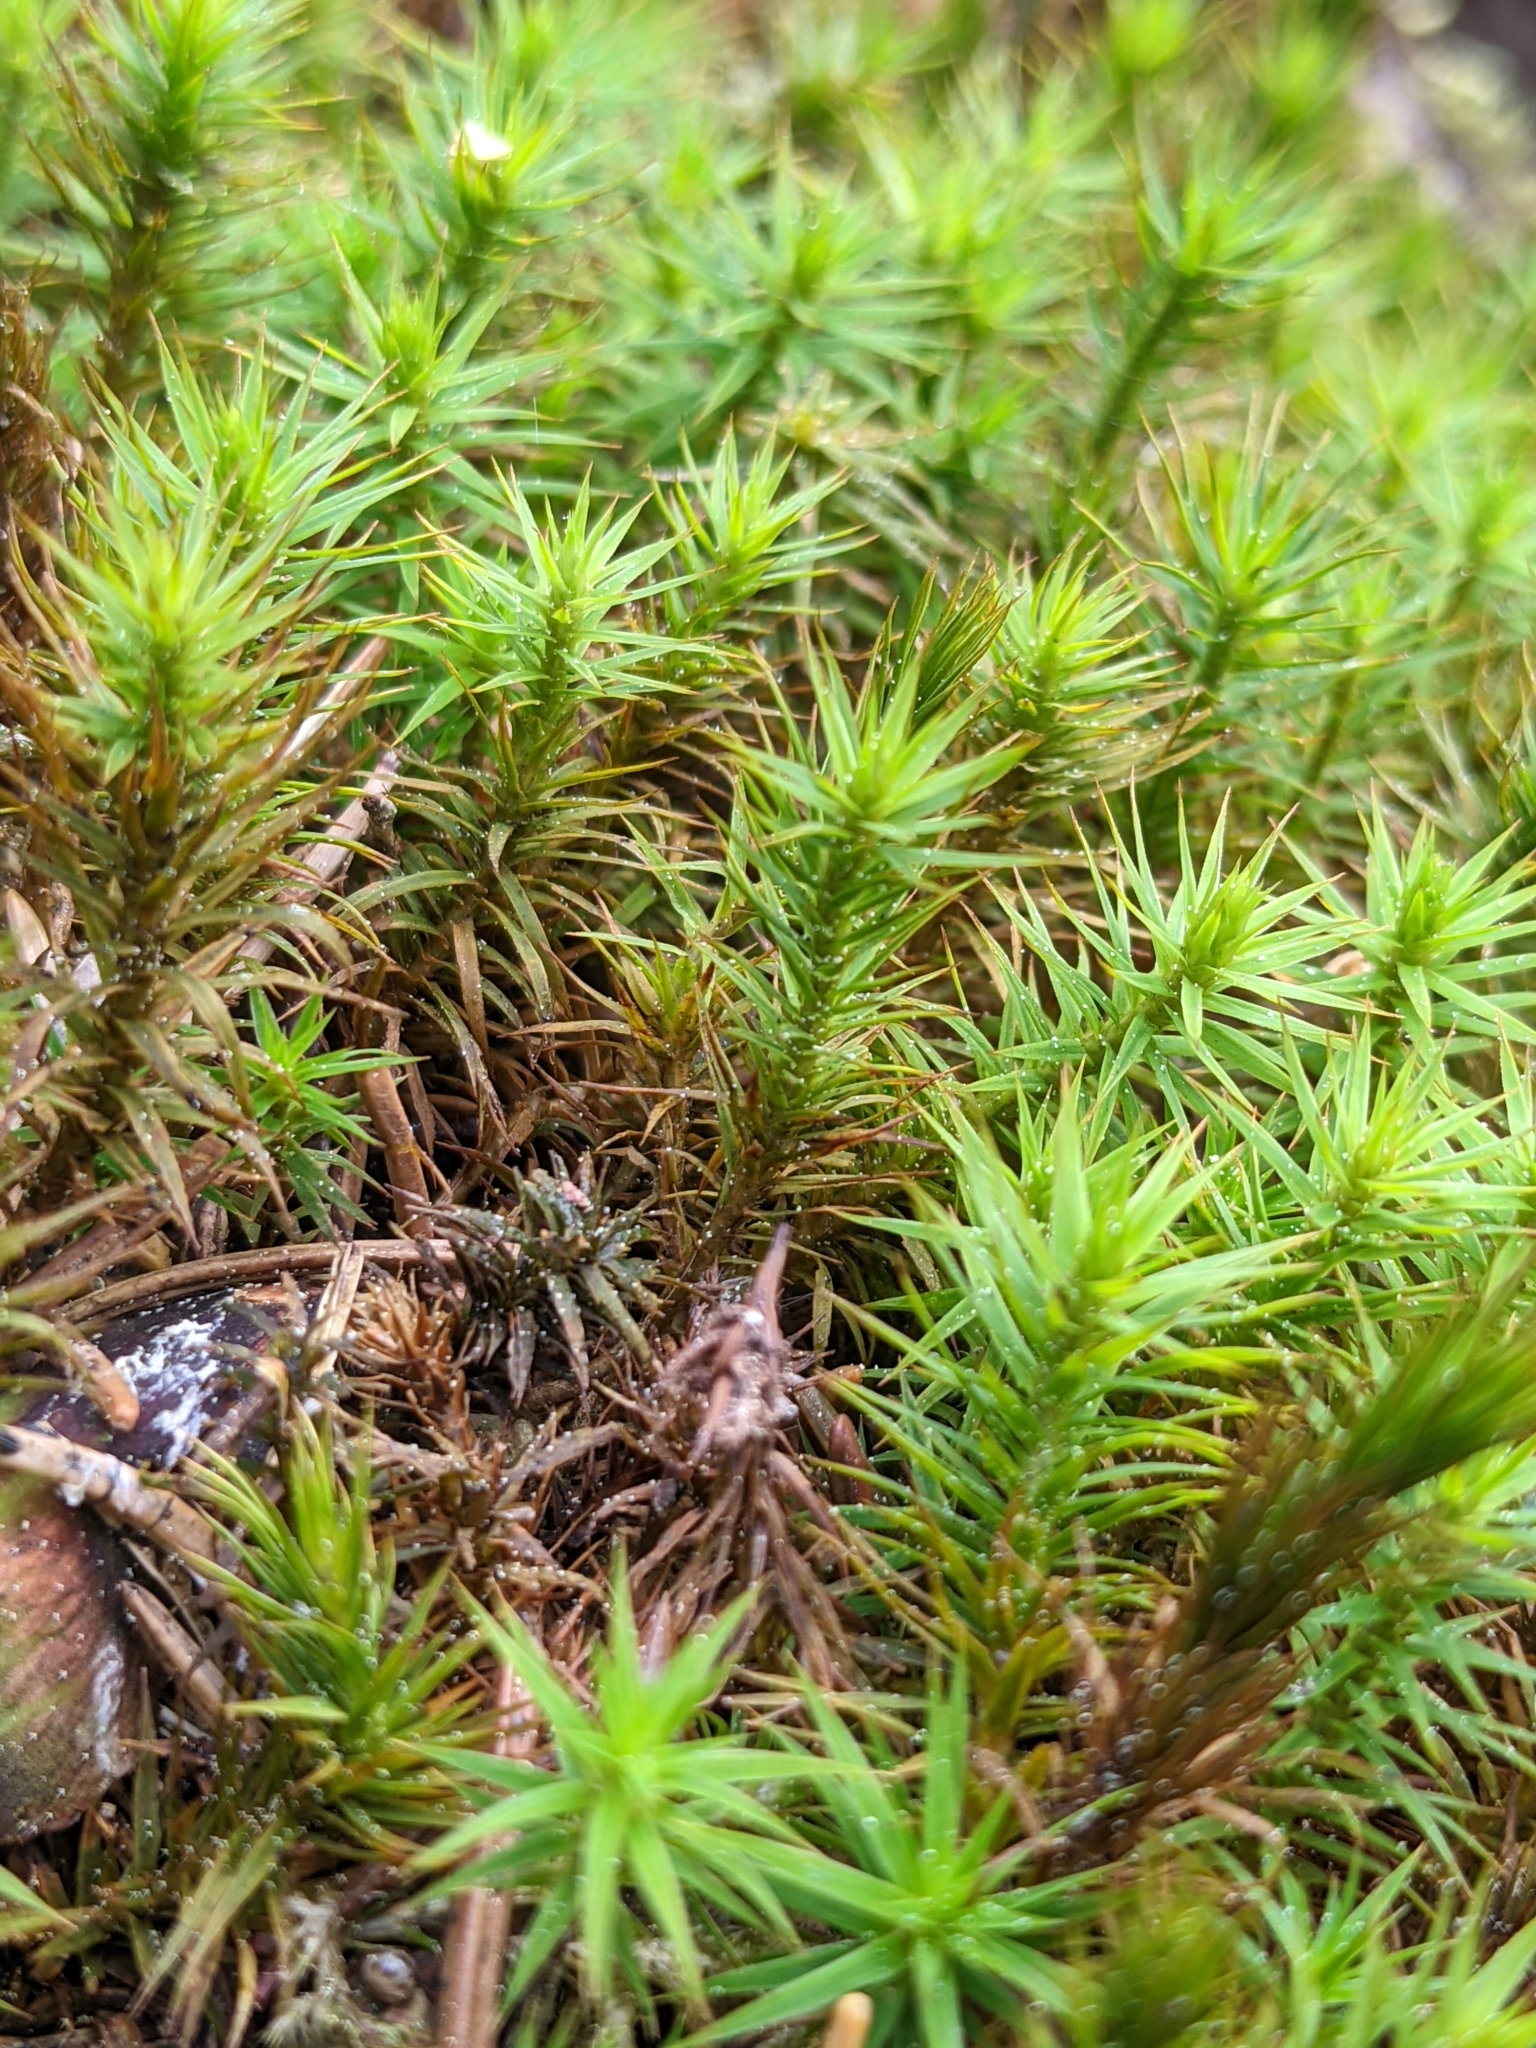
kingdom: Plantae
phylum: Bryophyta
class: Polytrichopsida
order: Polytrichales
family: Polytrichaceae
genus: Polytrichum
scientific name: Polytrichum formosum
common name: Bank haircap moss
